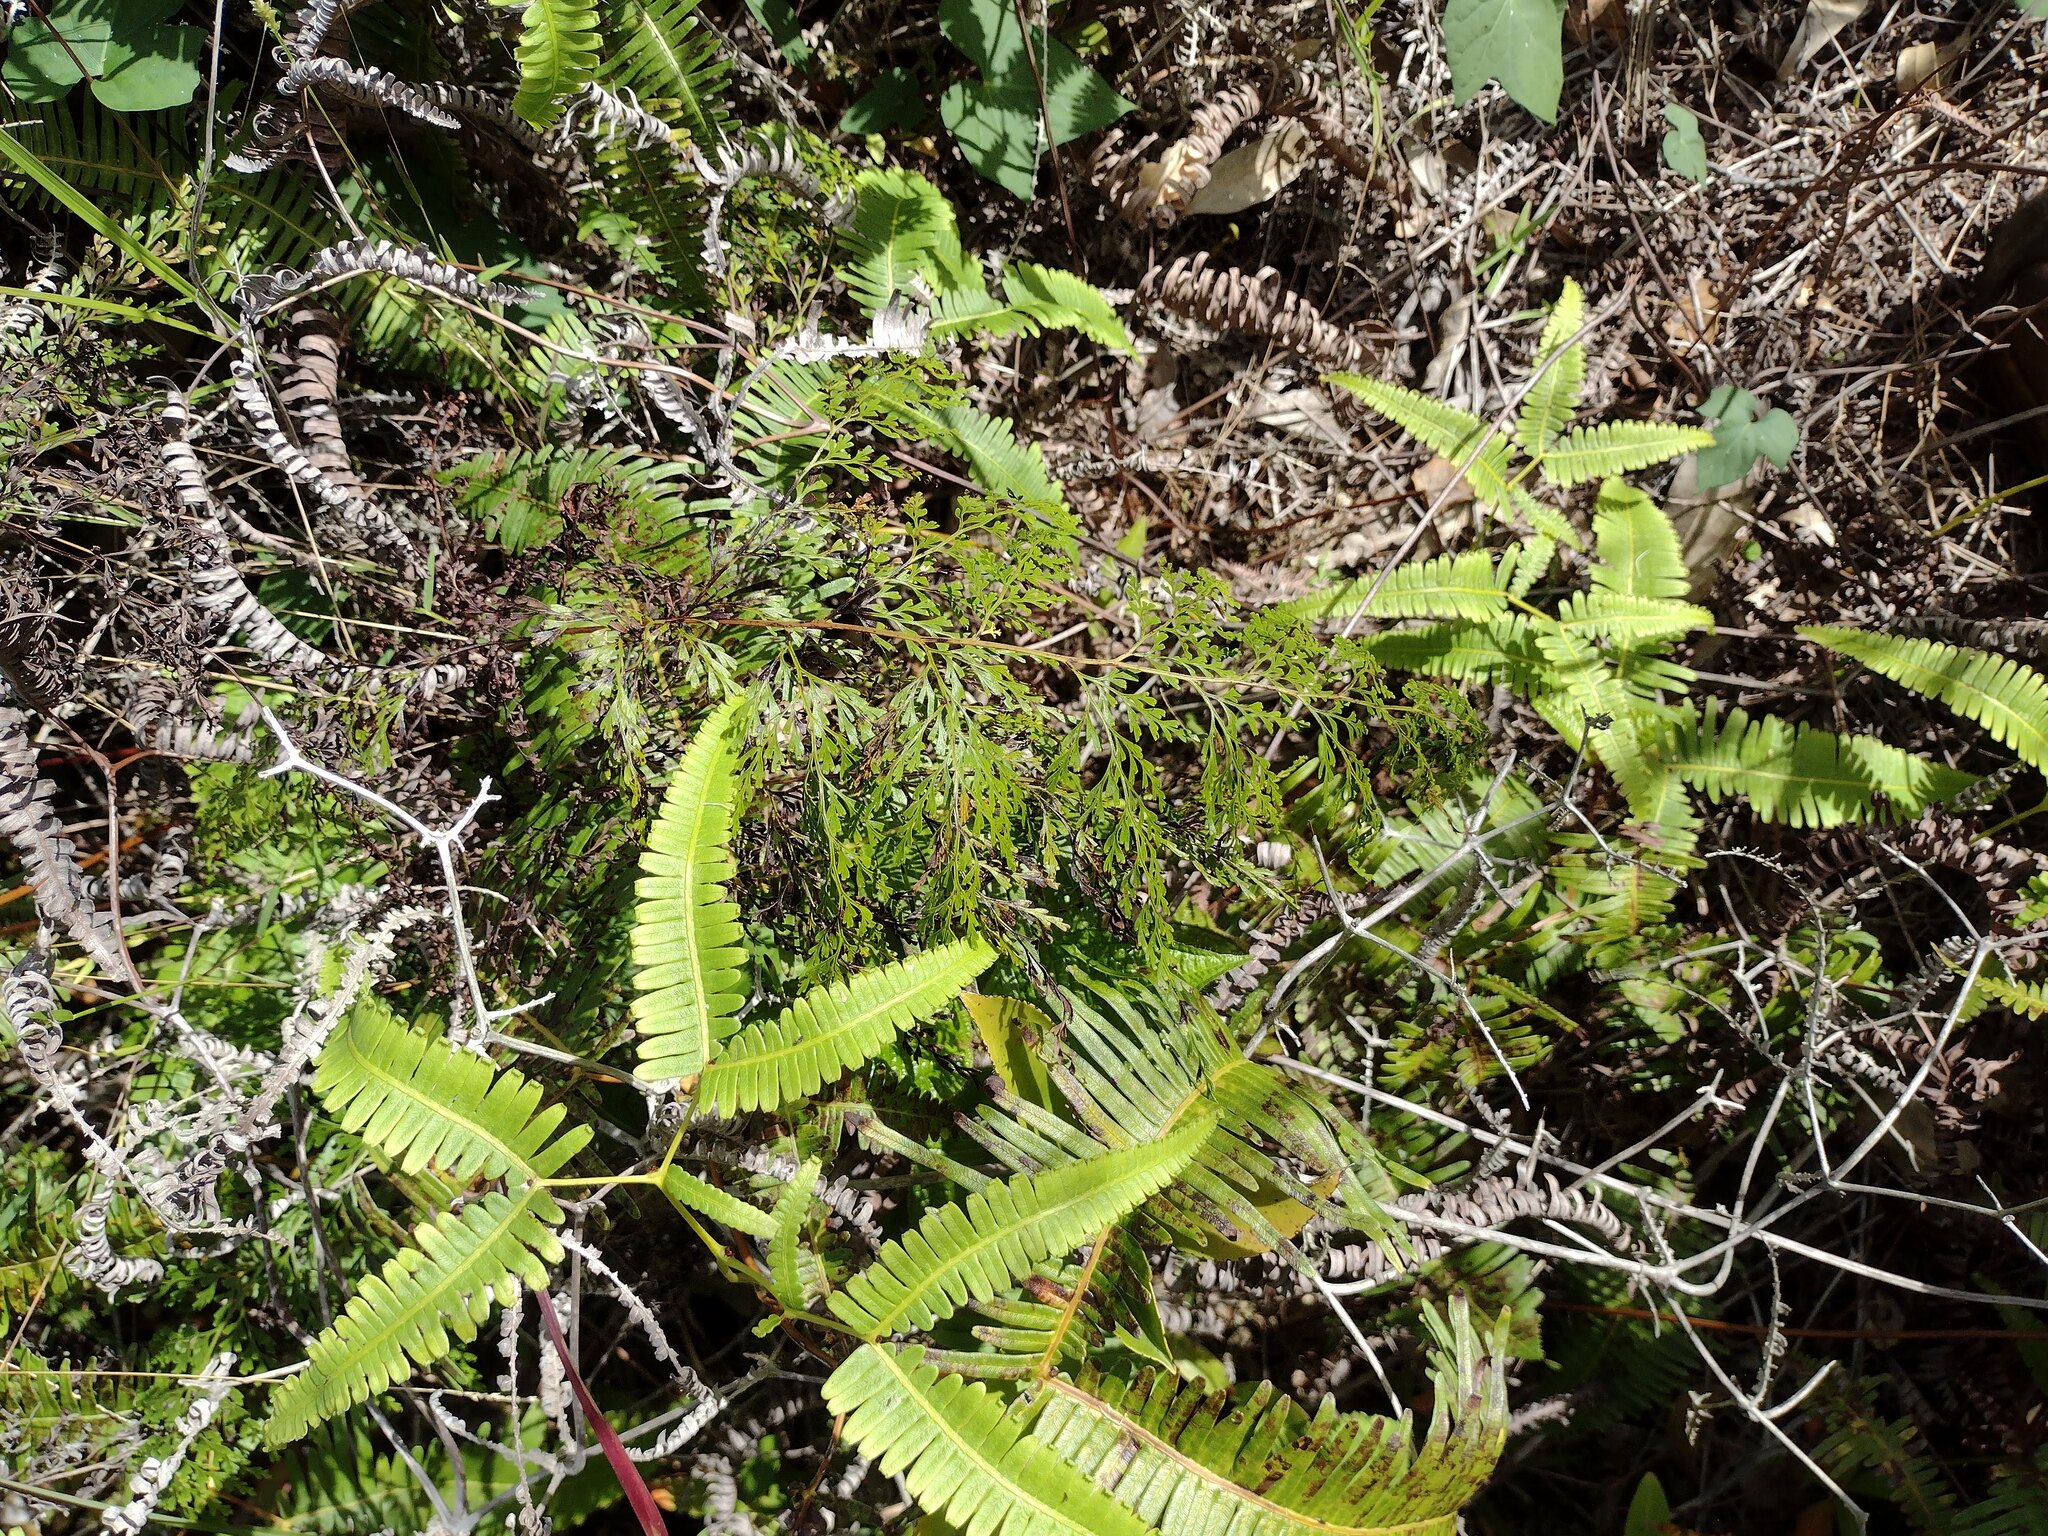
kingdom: Plantae
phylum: Tracheophyta
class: Polypodiopsida
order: Polypodiales
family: Lindsaeaceae
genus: Odontosoria
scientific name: Odontosoria chinensis
